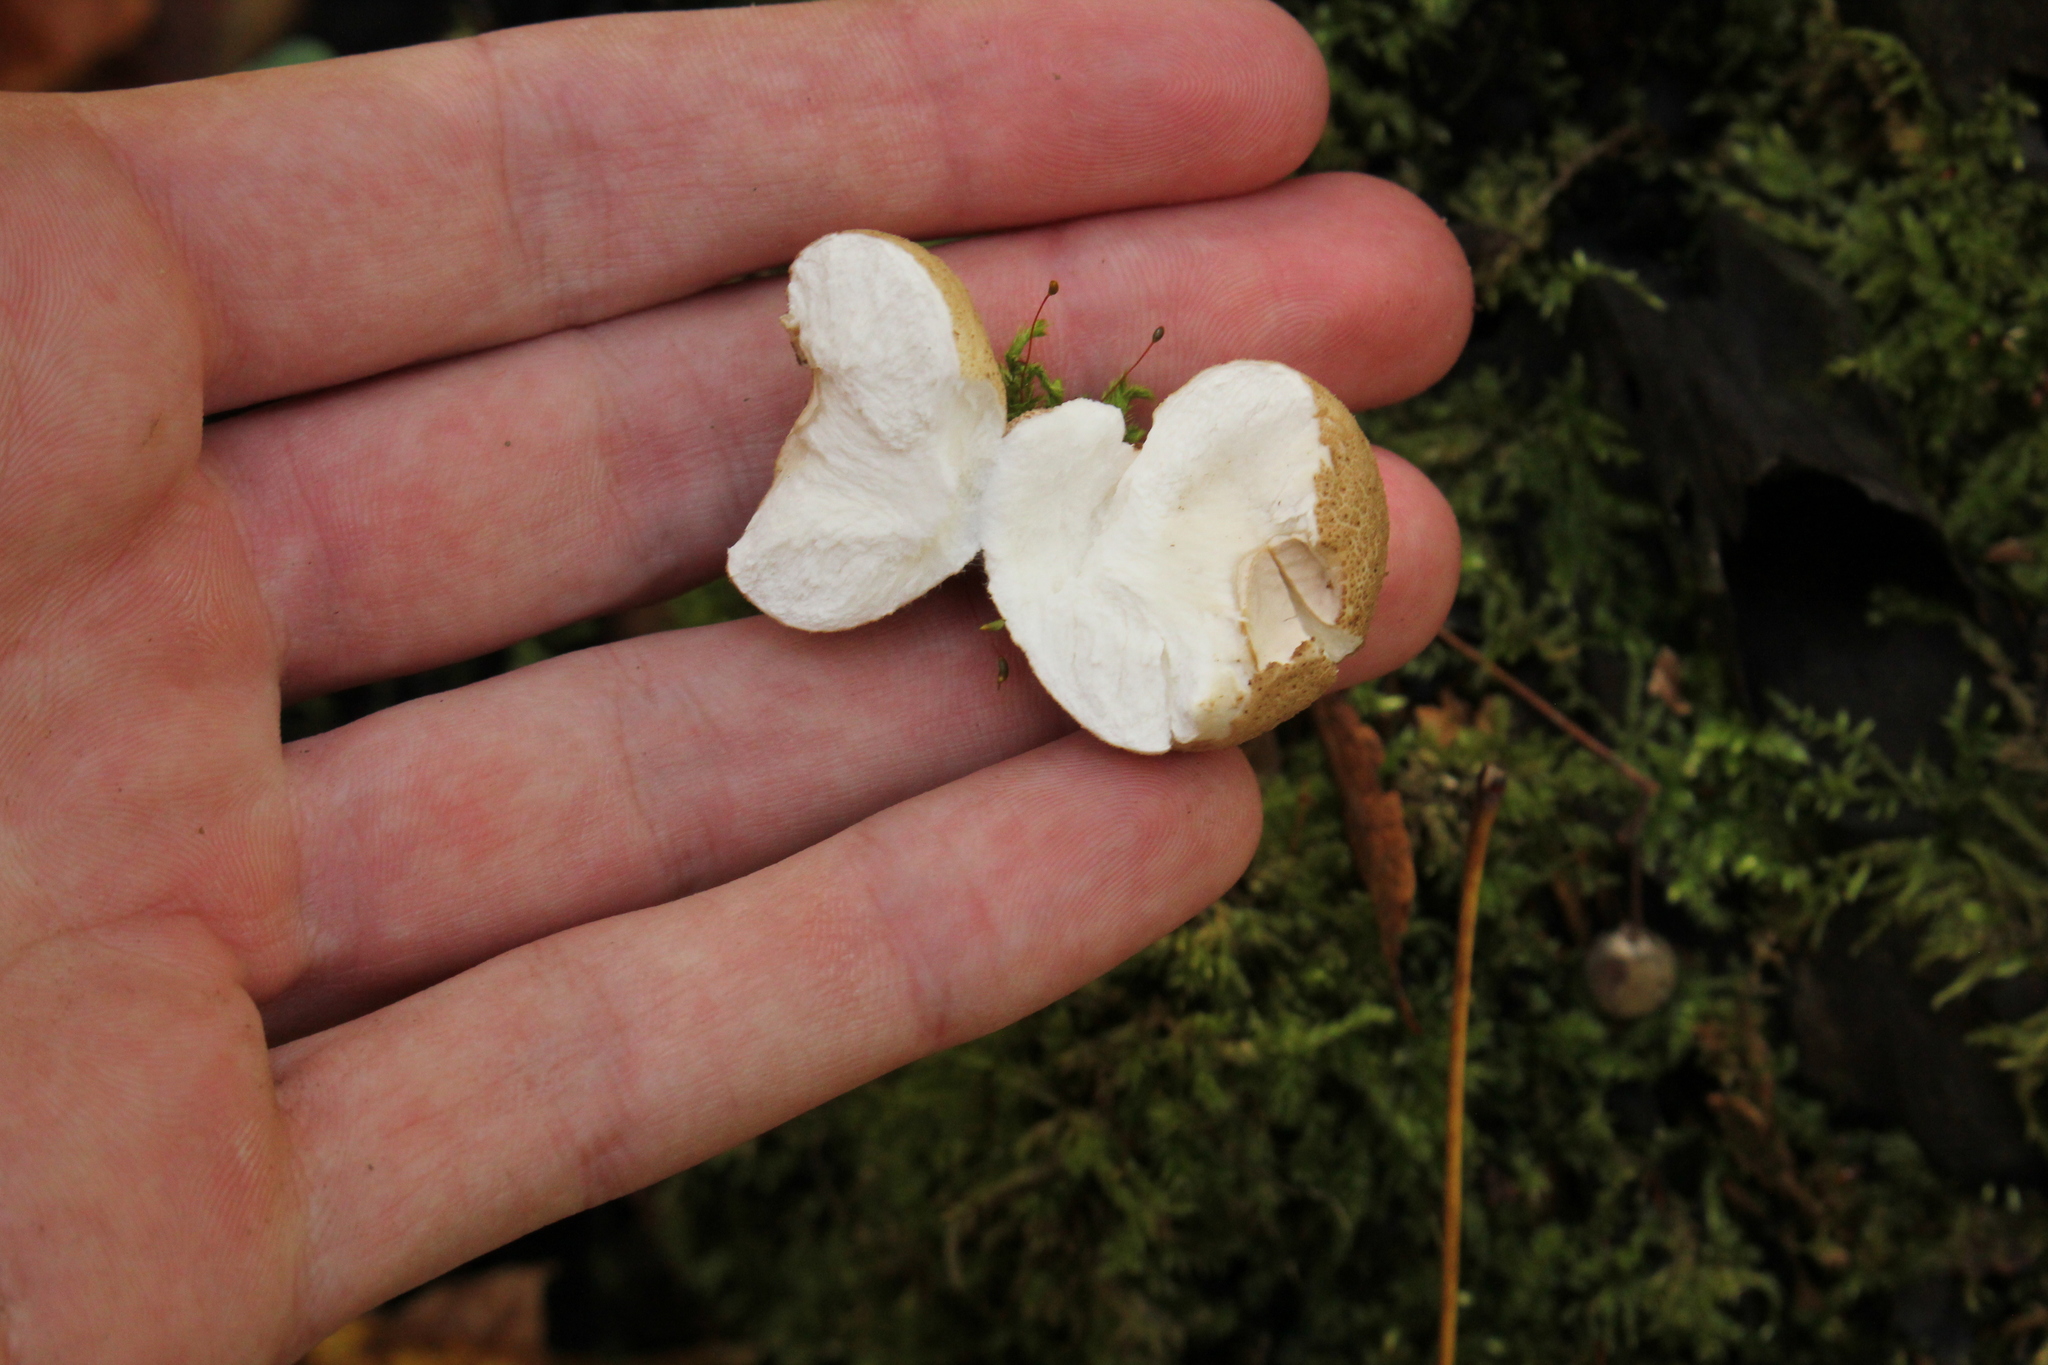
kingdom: Fungi
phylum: Basidiomycota
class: Agaricomycetes
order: Agaricales
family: Lycoperdaceae
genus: Apioperdon
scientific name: Apioperdon pyriforme
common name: Pear-shaped puffball
